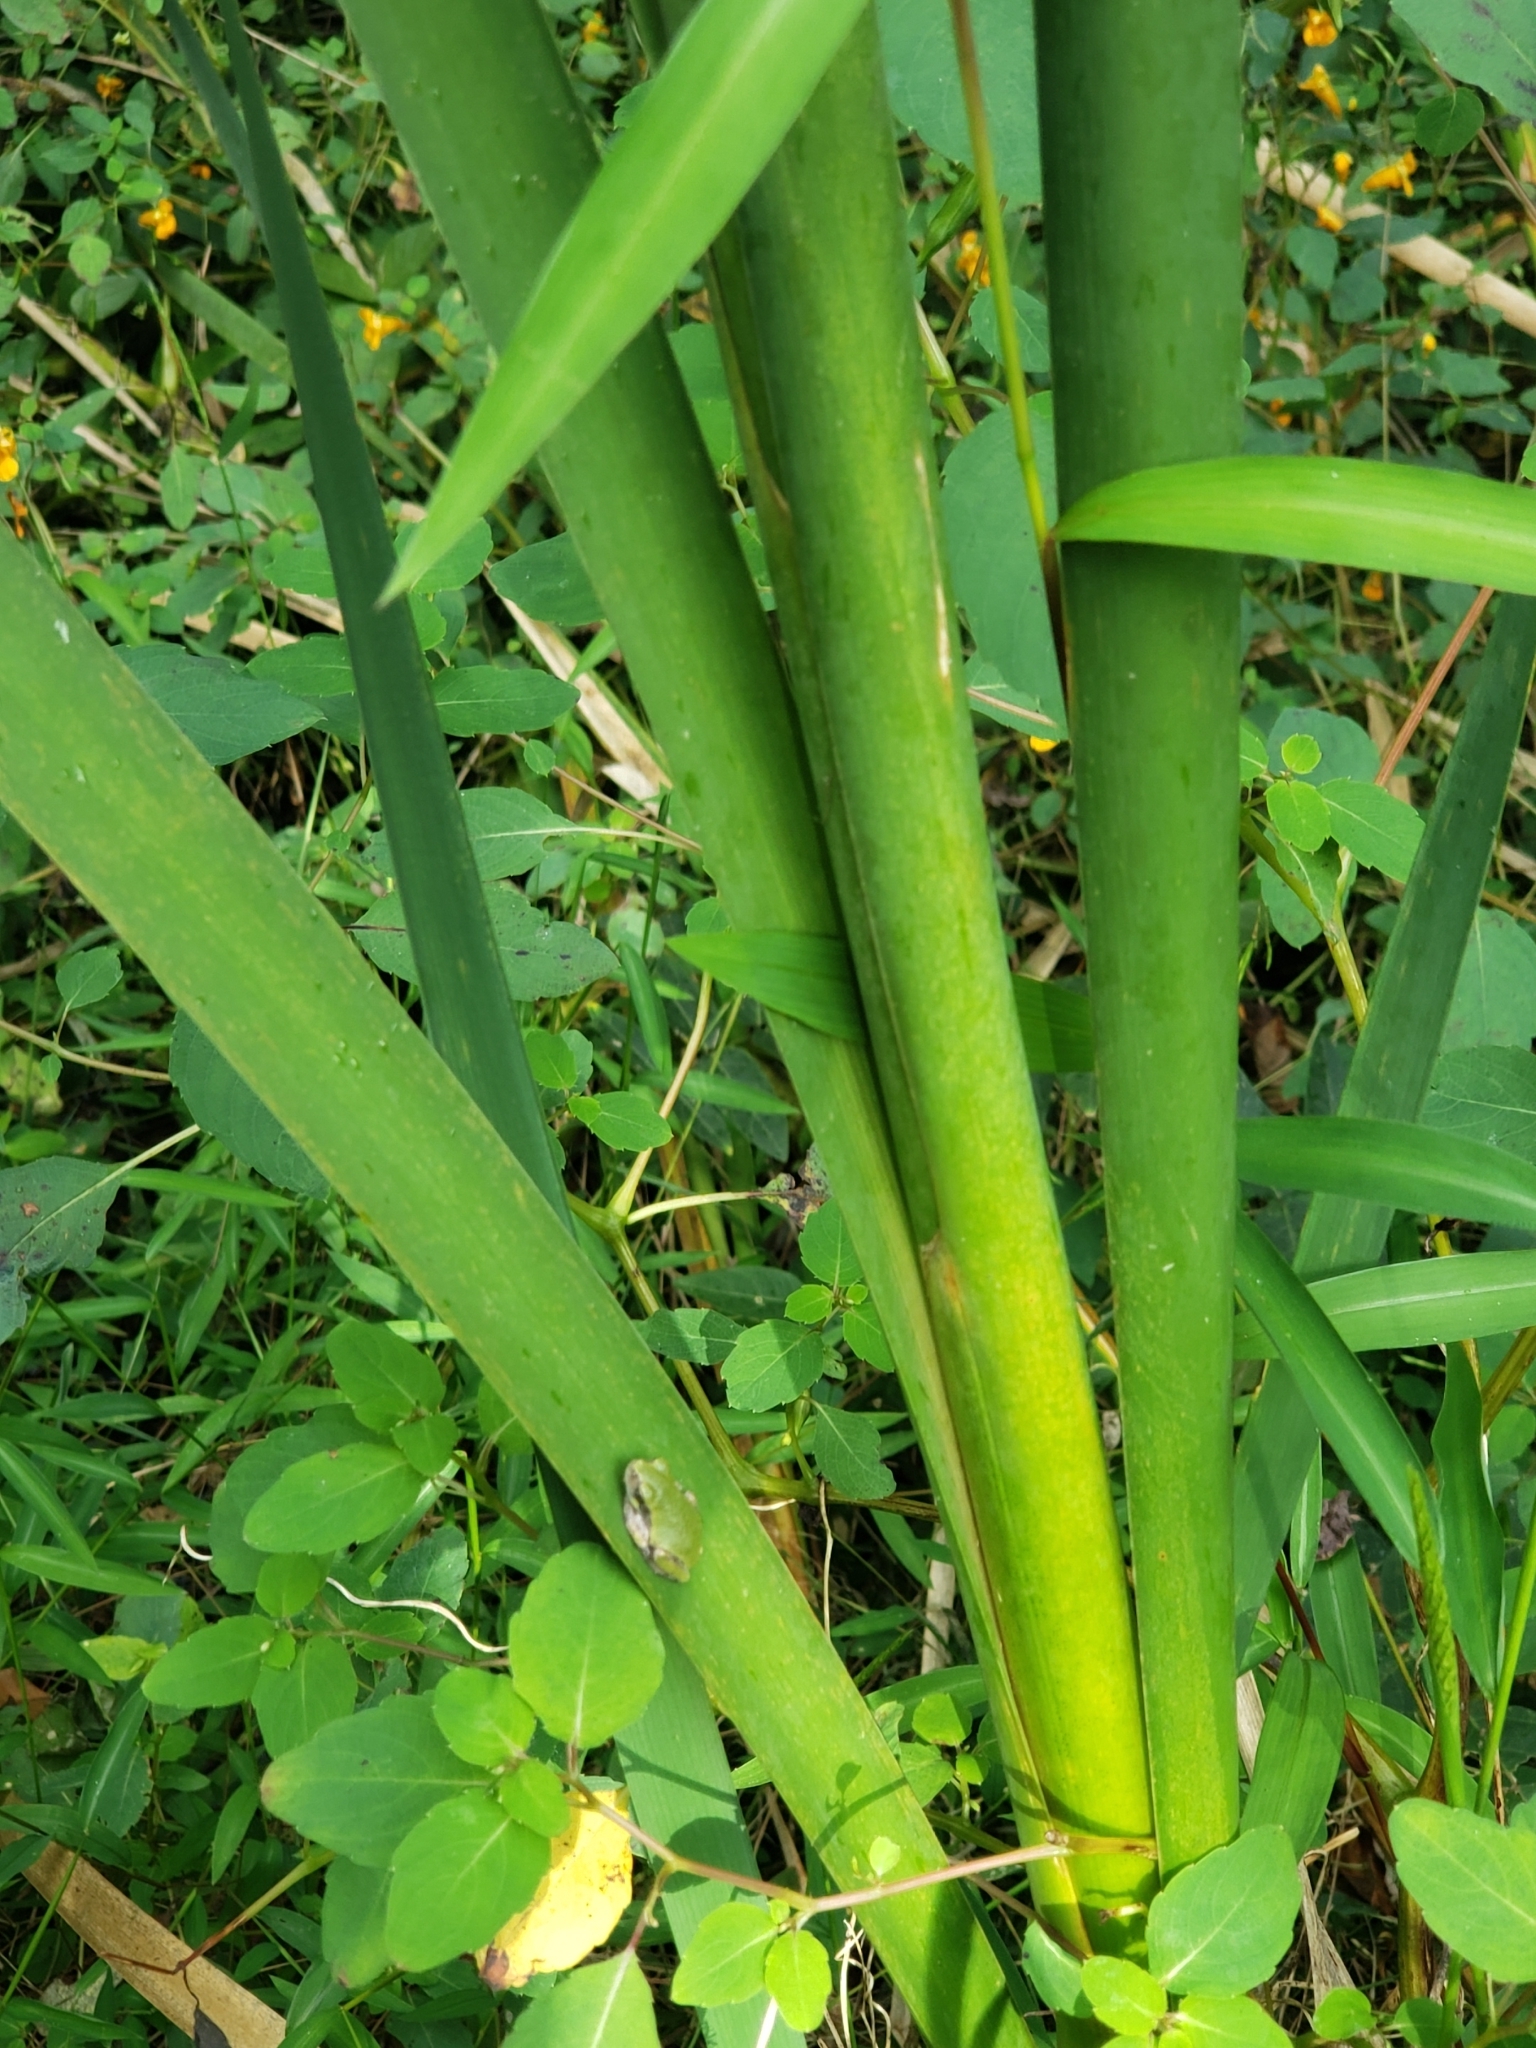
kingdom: Animalia
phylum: Chordata
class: Amphibia
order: Anura
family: Hylidae
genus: Hyla
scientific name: Hyla
